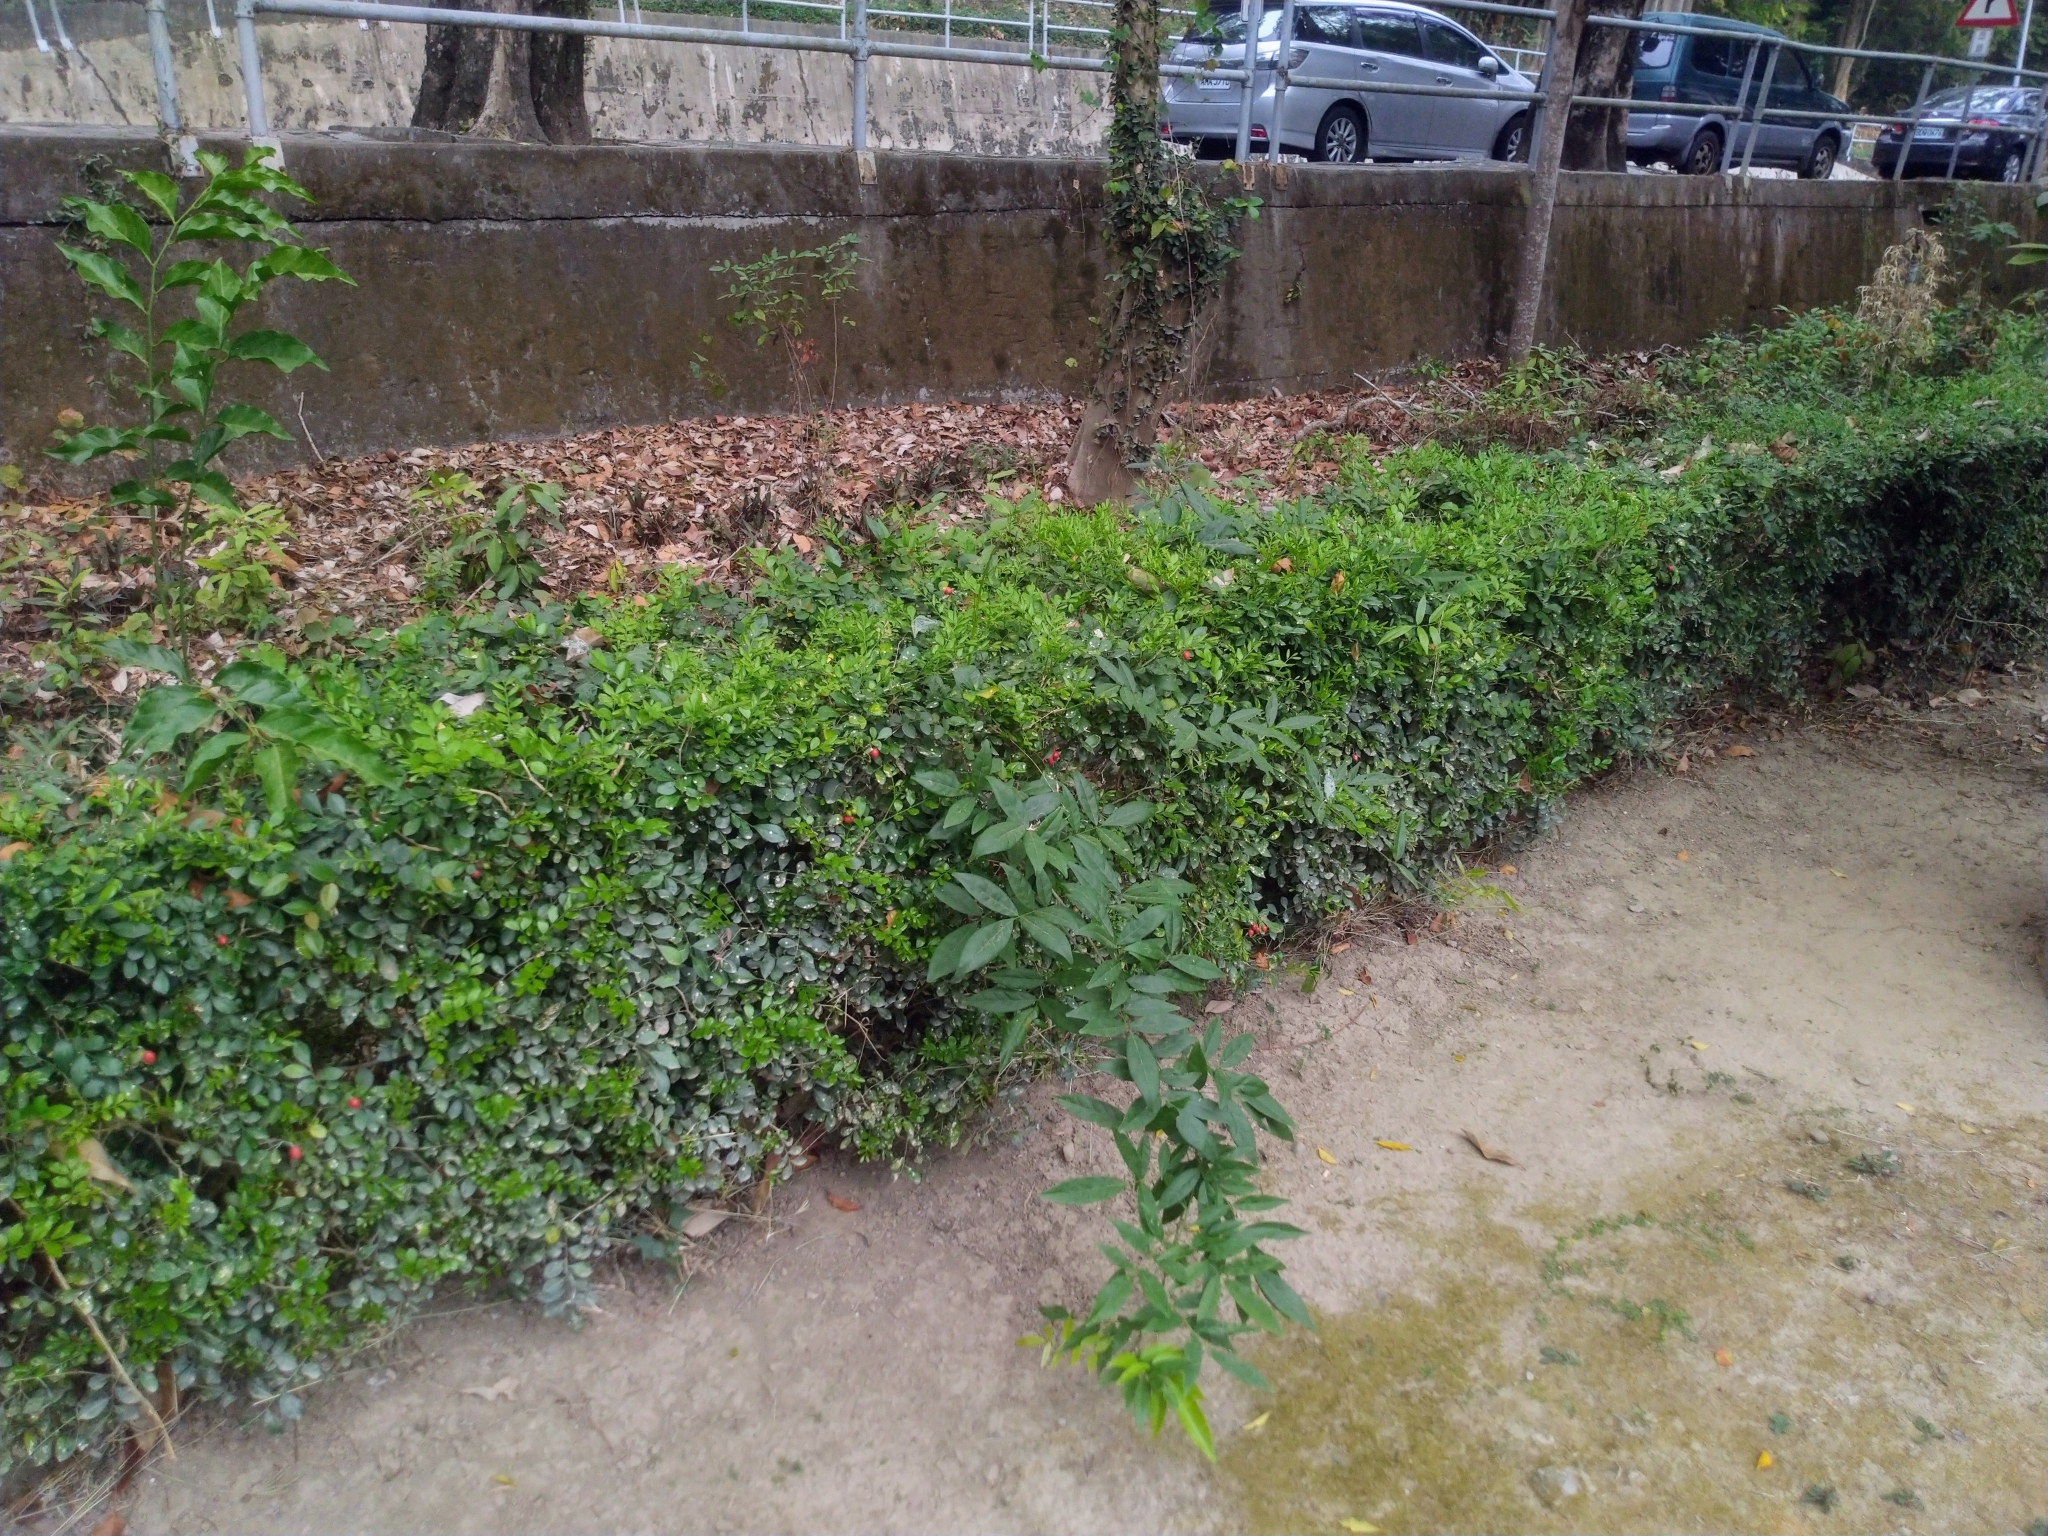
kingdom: Plantae
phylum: Tracheophyta
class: Magnoliopsida
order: Fabales
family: Fabaceae
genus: Wisteriopsis
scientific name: Wisteriopsis reticulata
